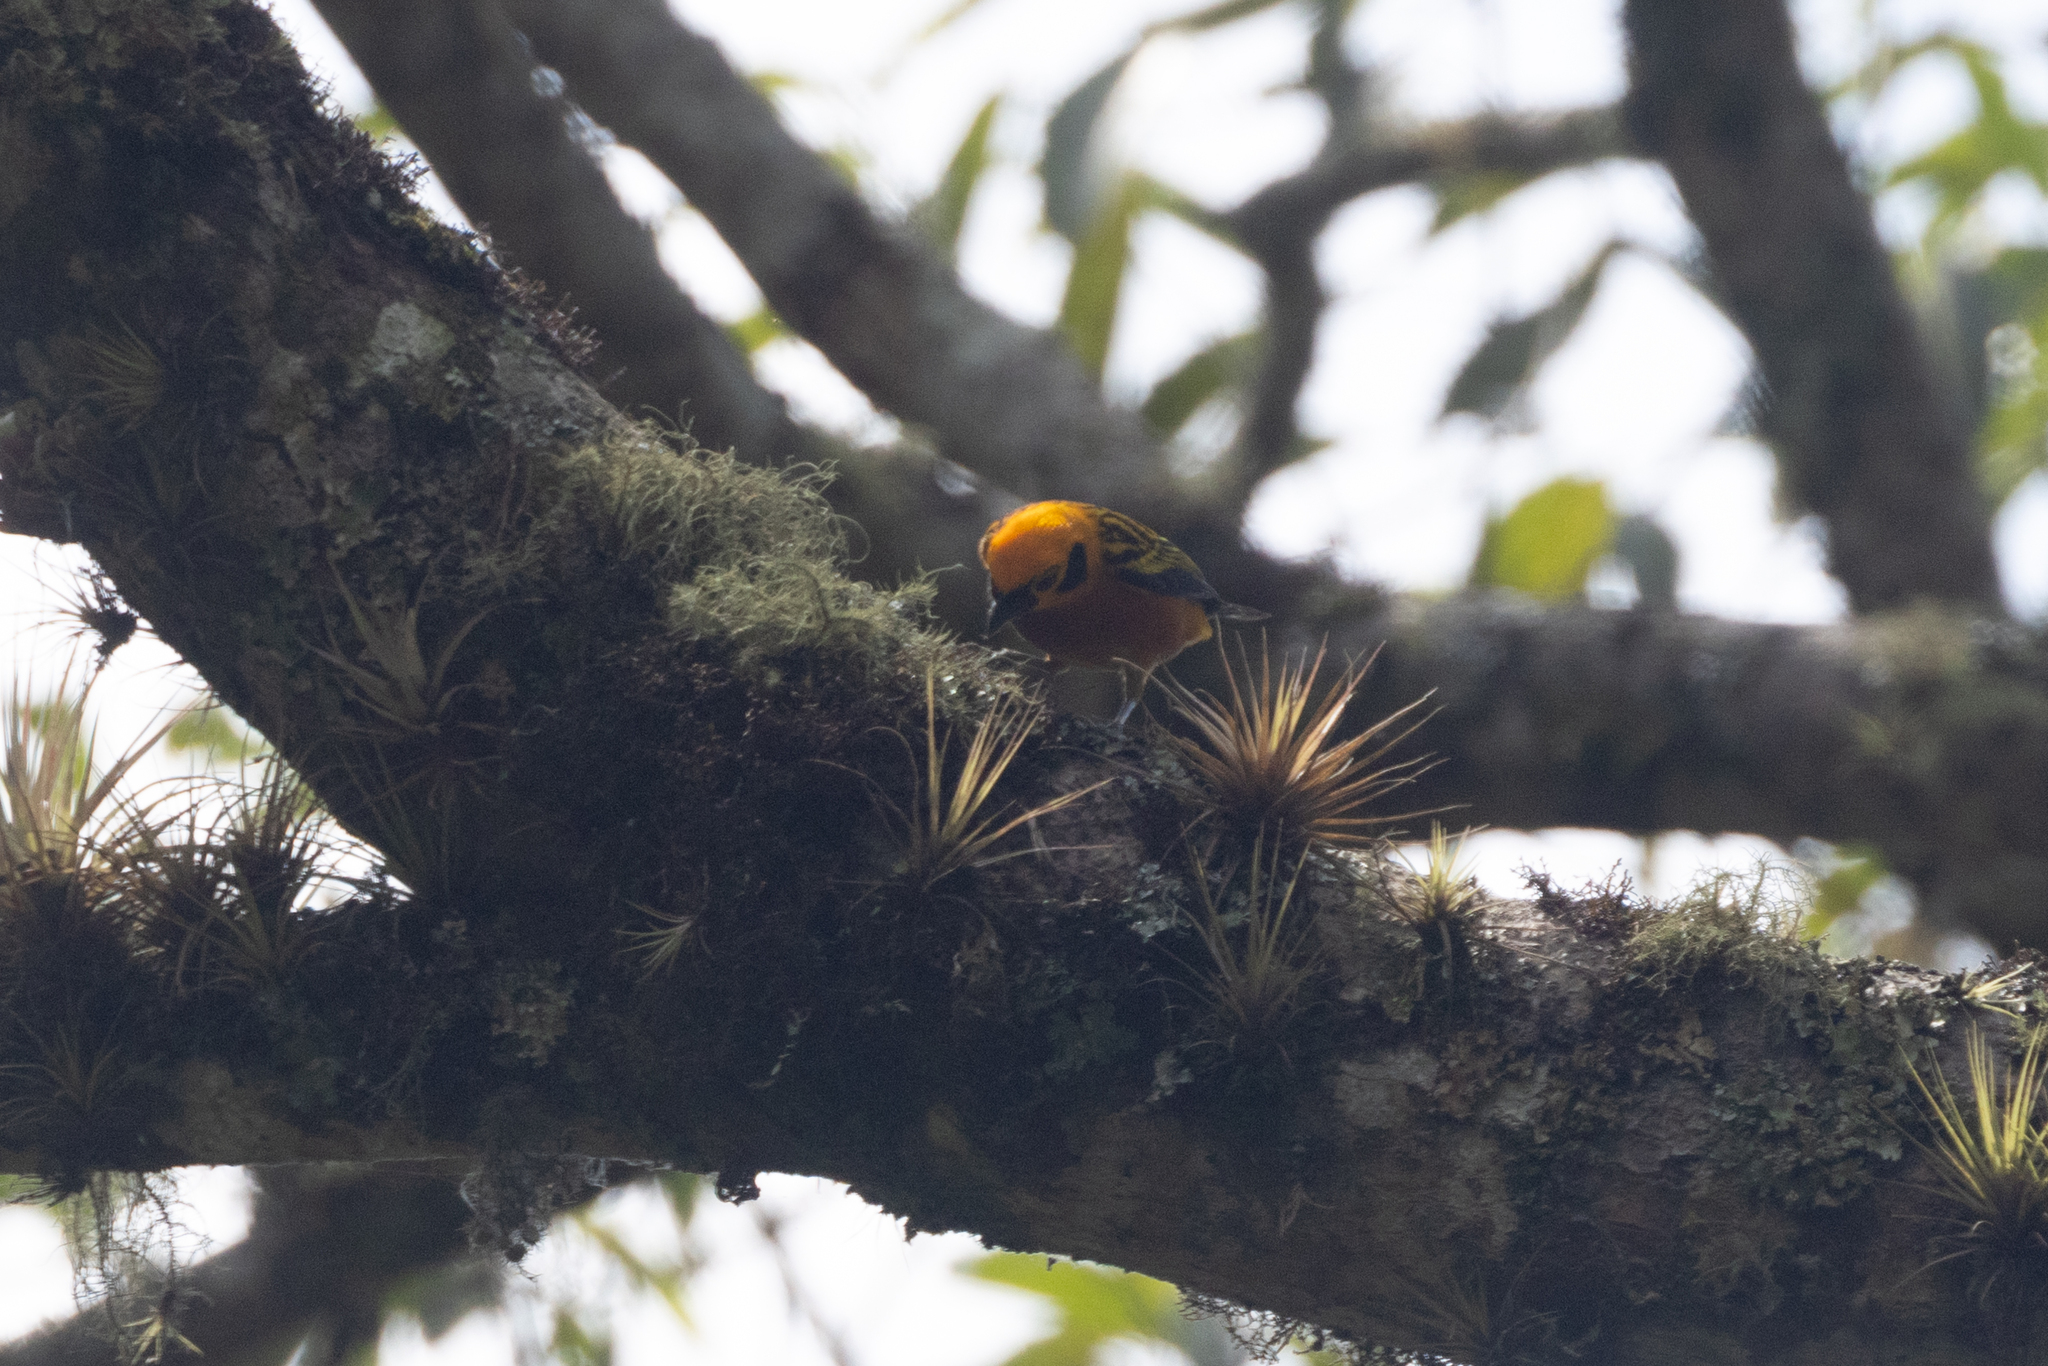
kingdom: Animalia
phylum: Chordata
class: Aves
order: Passeriformes
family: Thraupidae
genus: Tangara
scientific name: Tangara arthus
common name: Golden tanager
